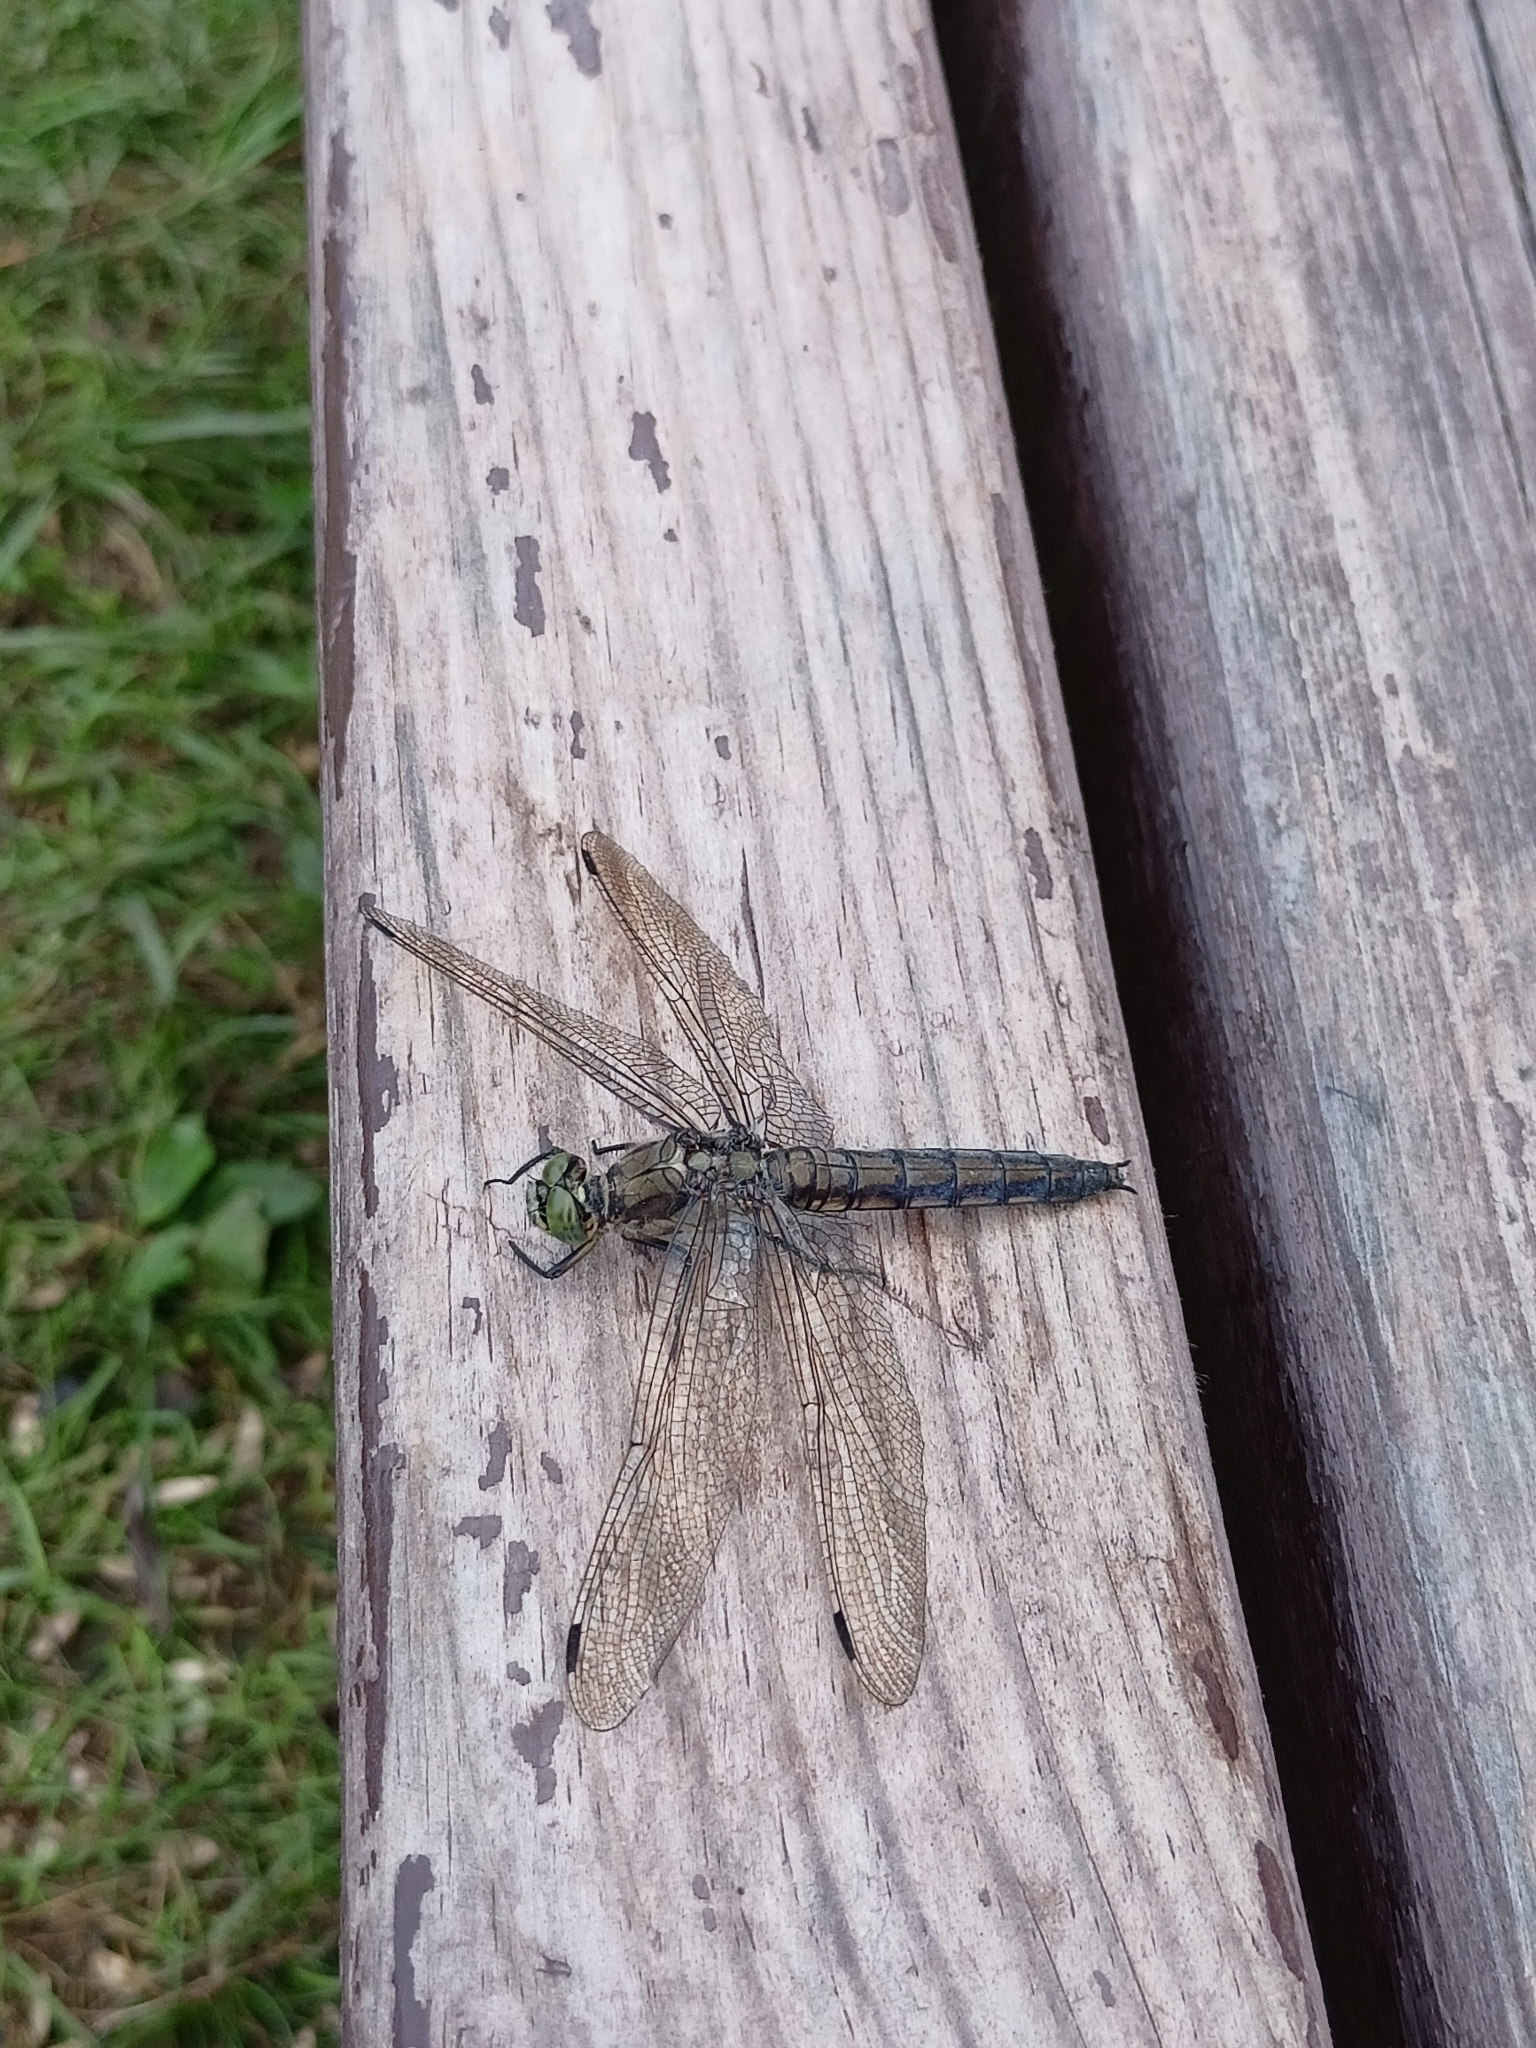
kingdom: Animalia
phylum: Arthropoda
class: Insecta
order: Odonata
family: Libellulidae
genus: Orthetrum
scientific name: Orthetrum cancellatum
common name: Black-tailed skimmer
